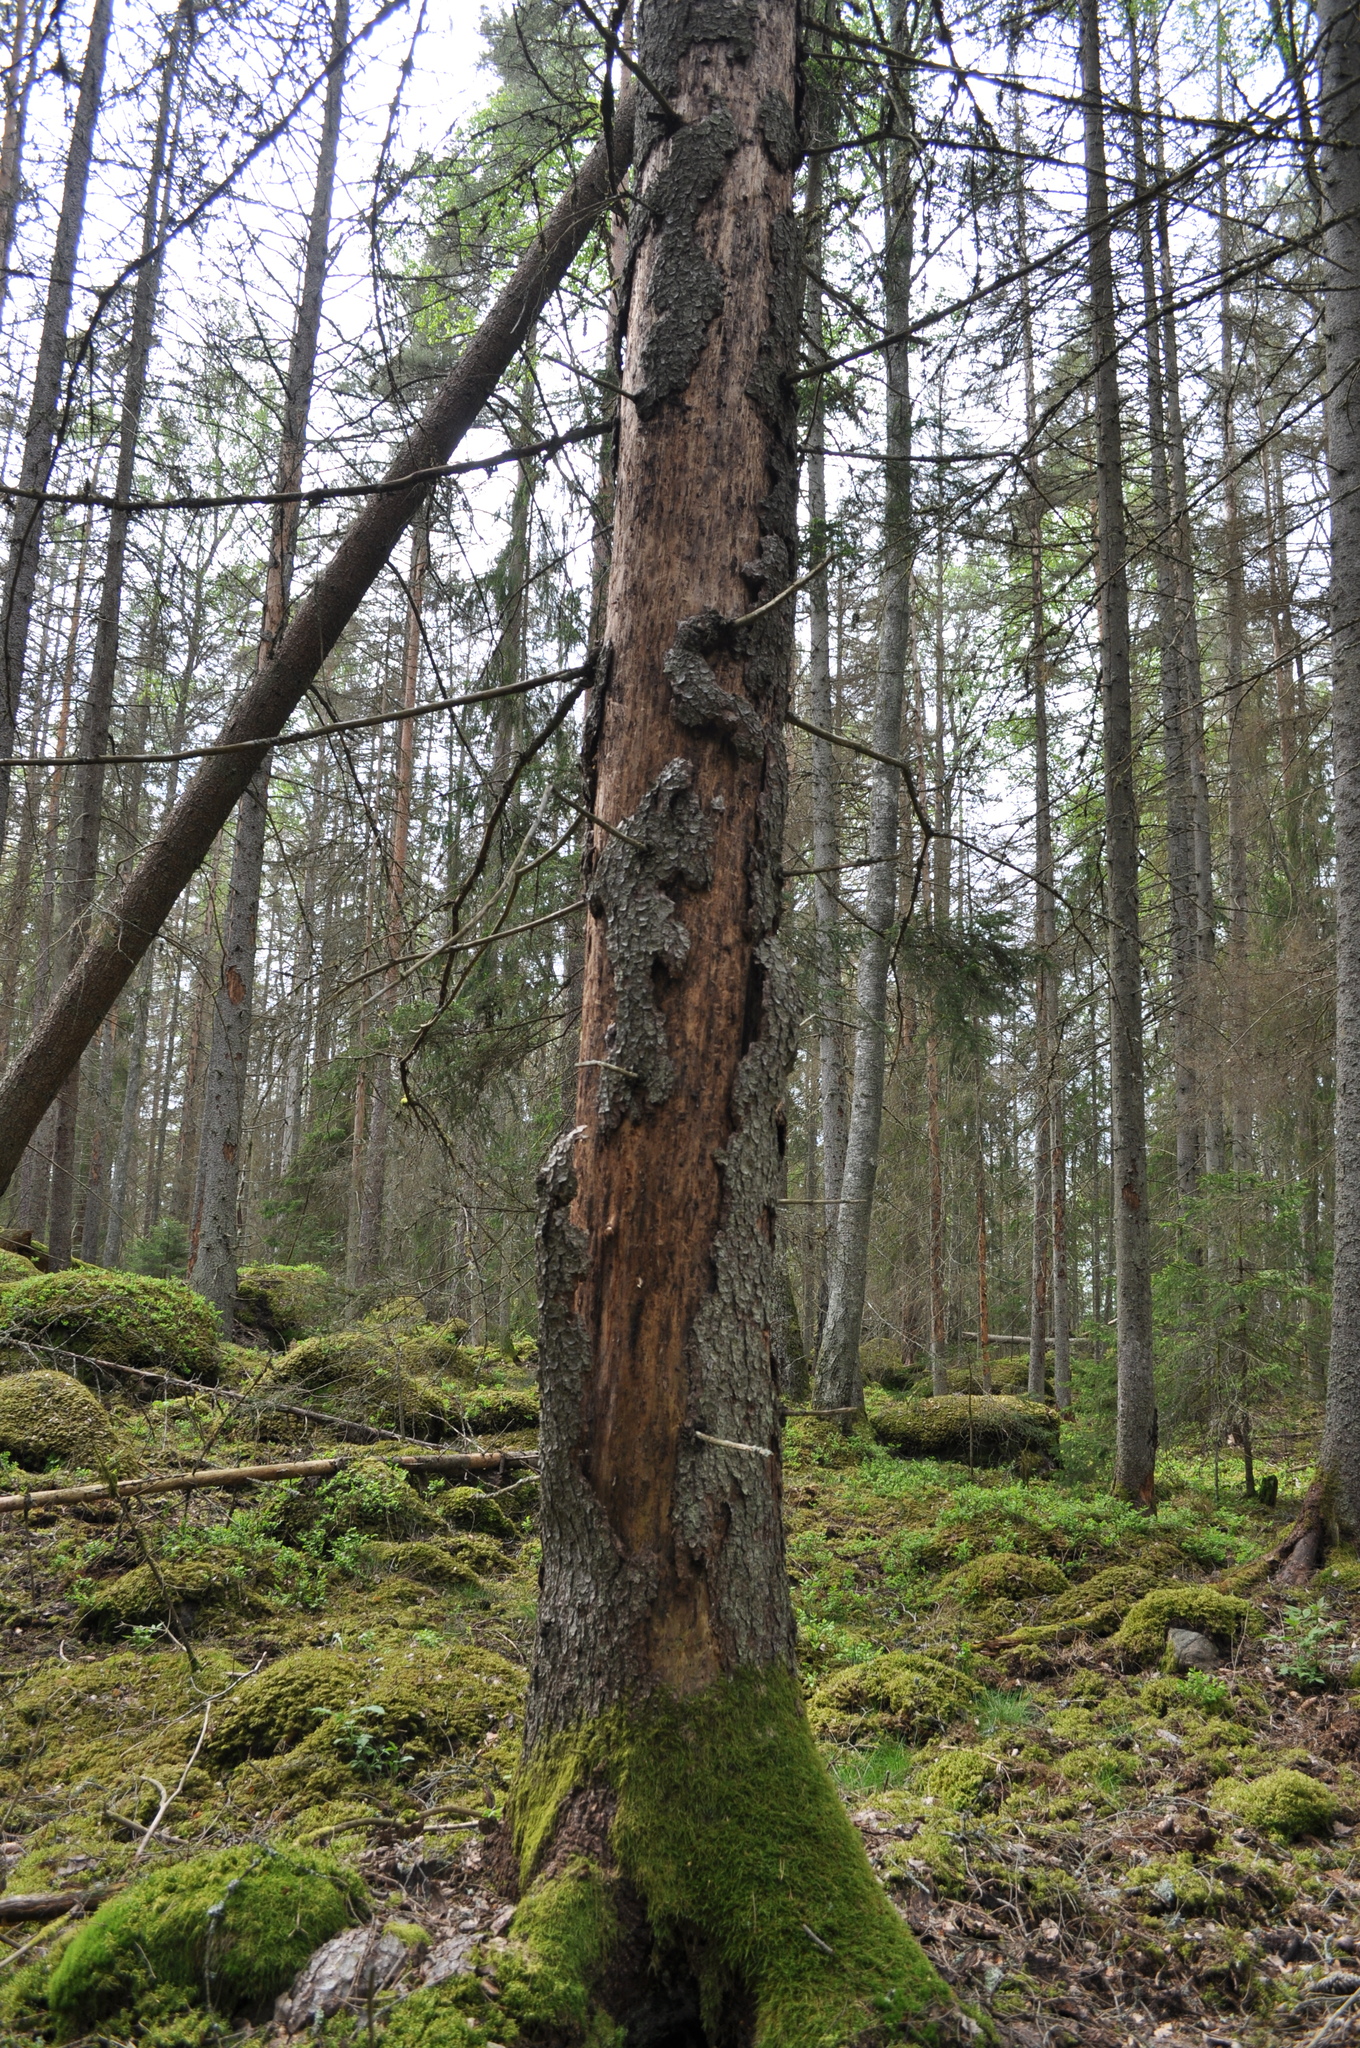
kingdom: Plantae
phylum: Tracheophyta
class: Pinopsida
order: Pinales
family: Pinaceae
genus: Picea
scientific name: Picea abies
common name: Norway spruce
